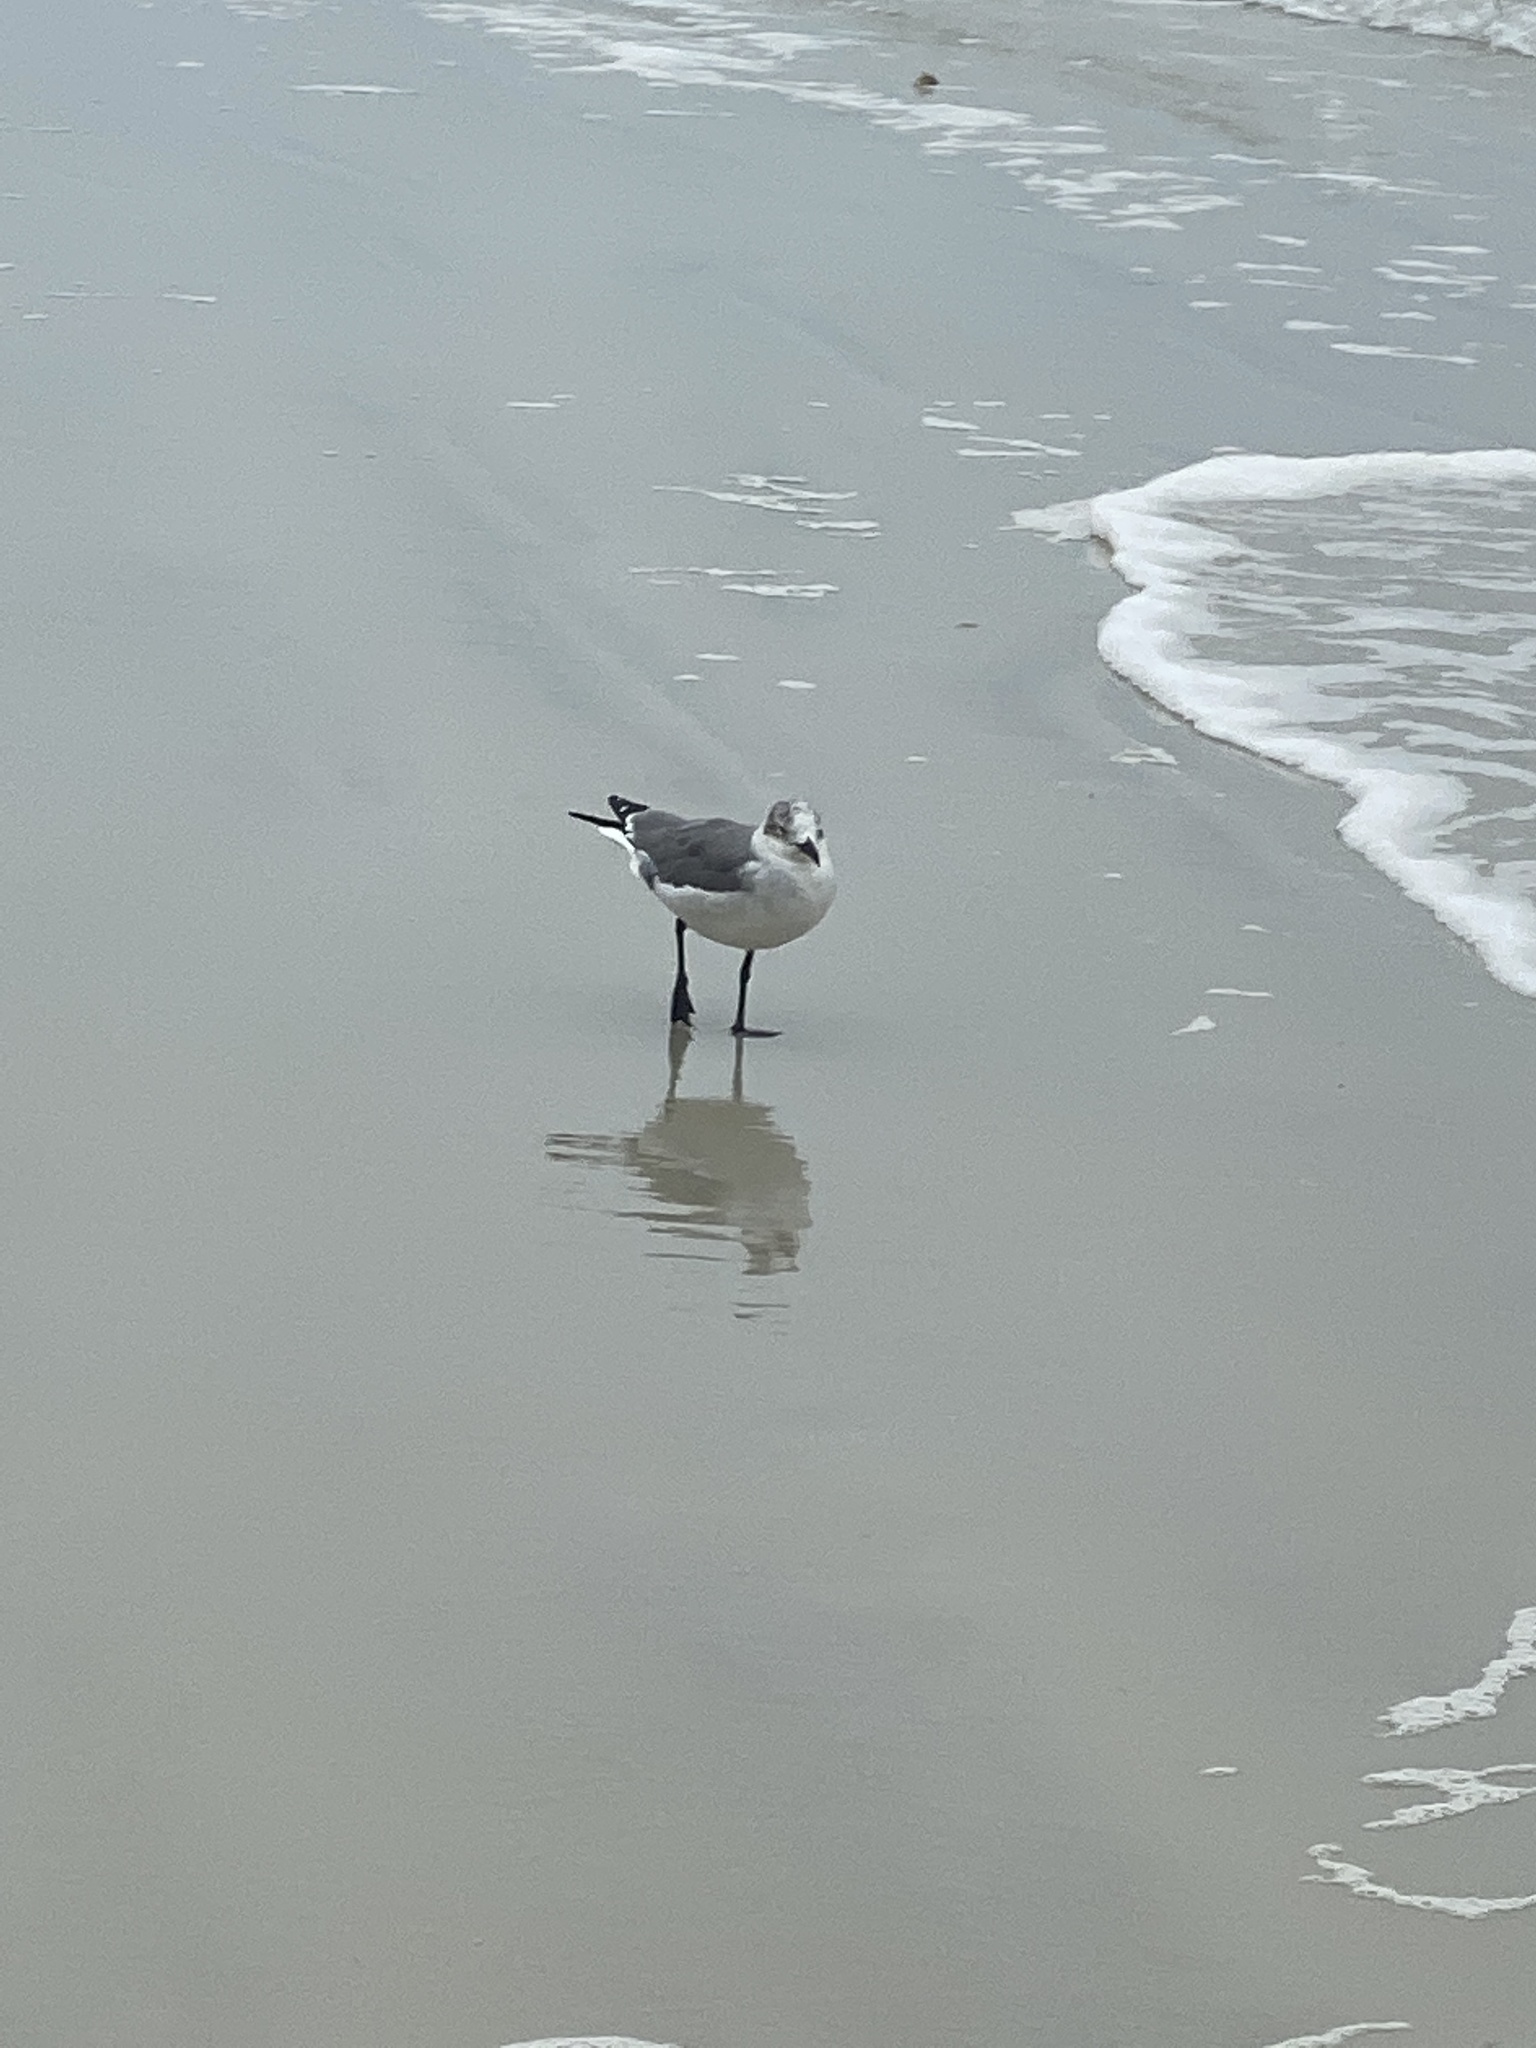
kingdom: Animalia
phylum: Chordata
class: Aves
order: Charadriiformes
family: Laridae
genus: Leucophaeus
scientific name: Leucophaeus atricilla
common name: Laughing gull
